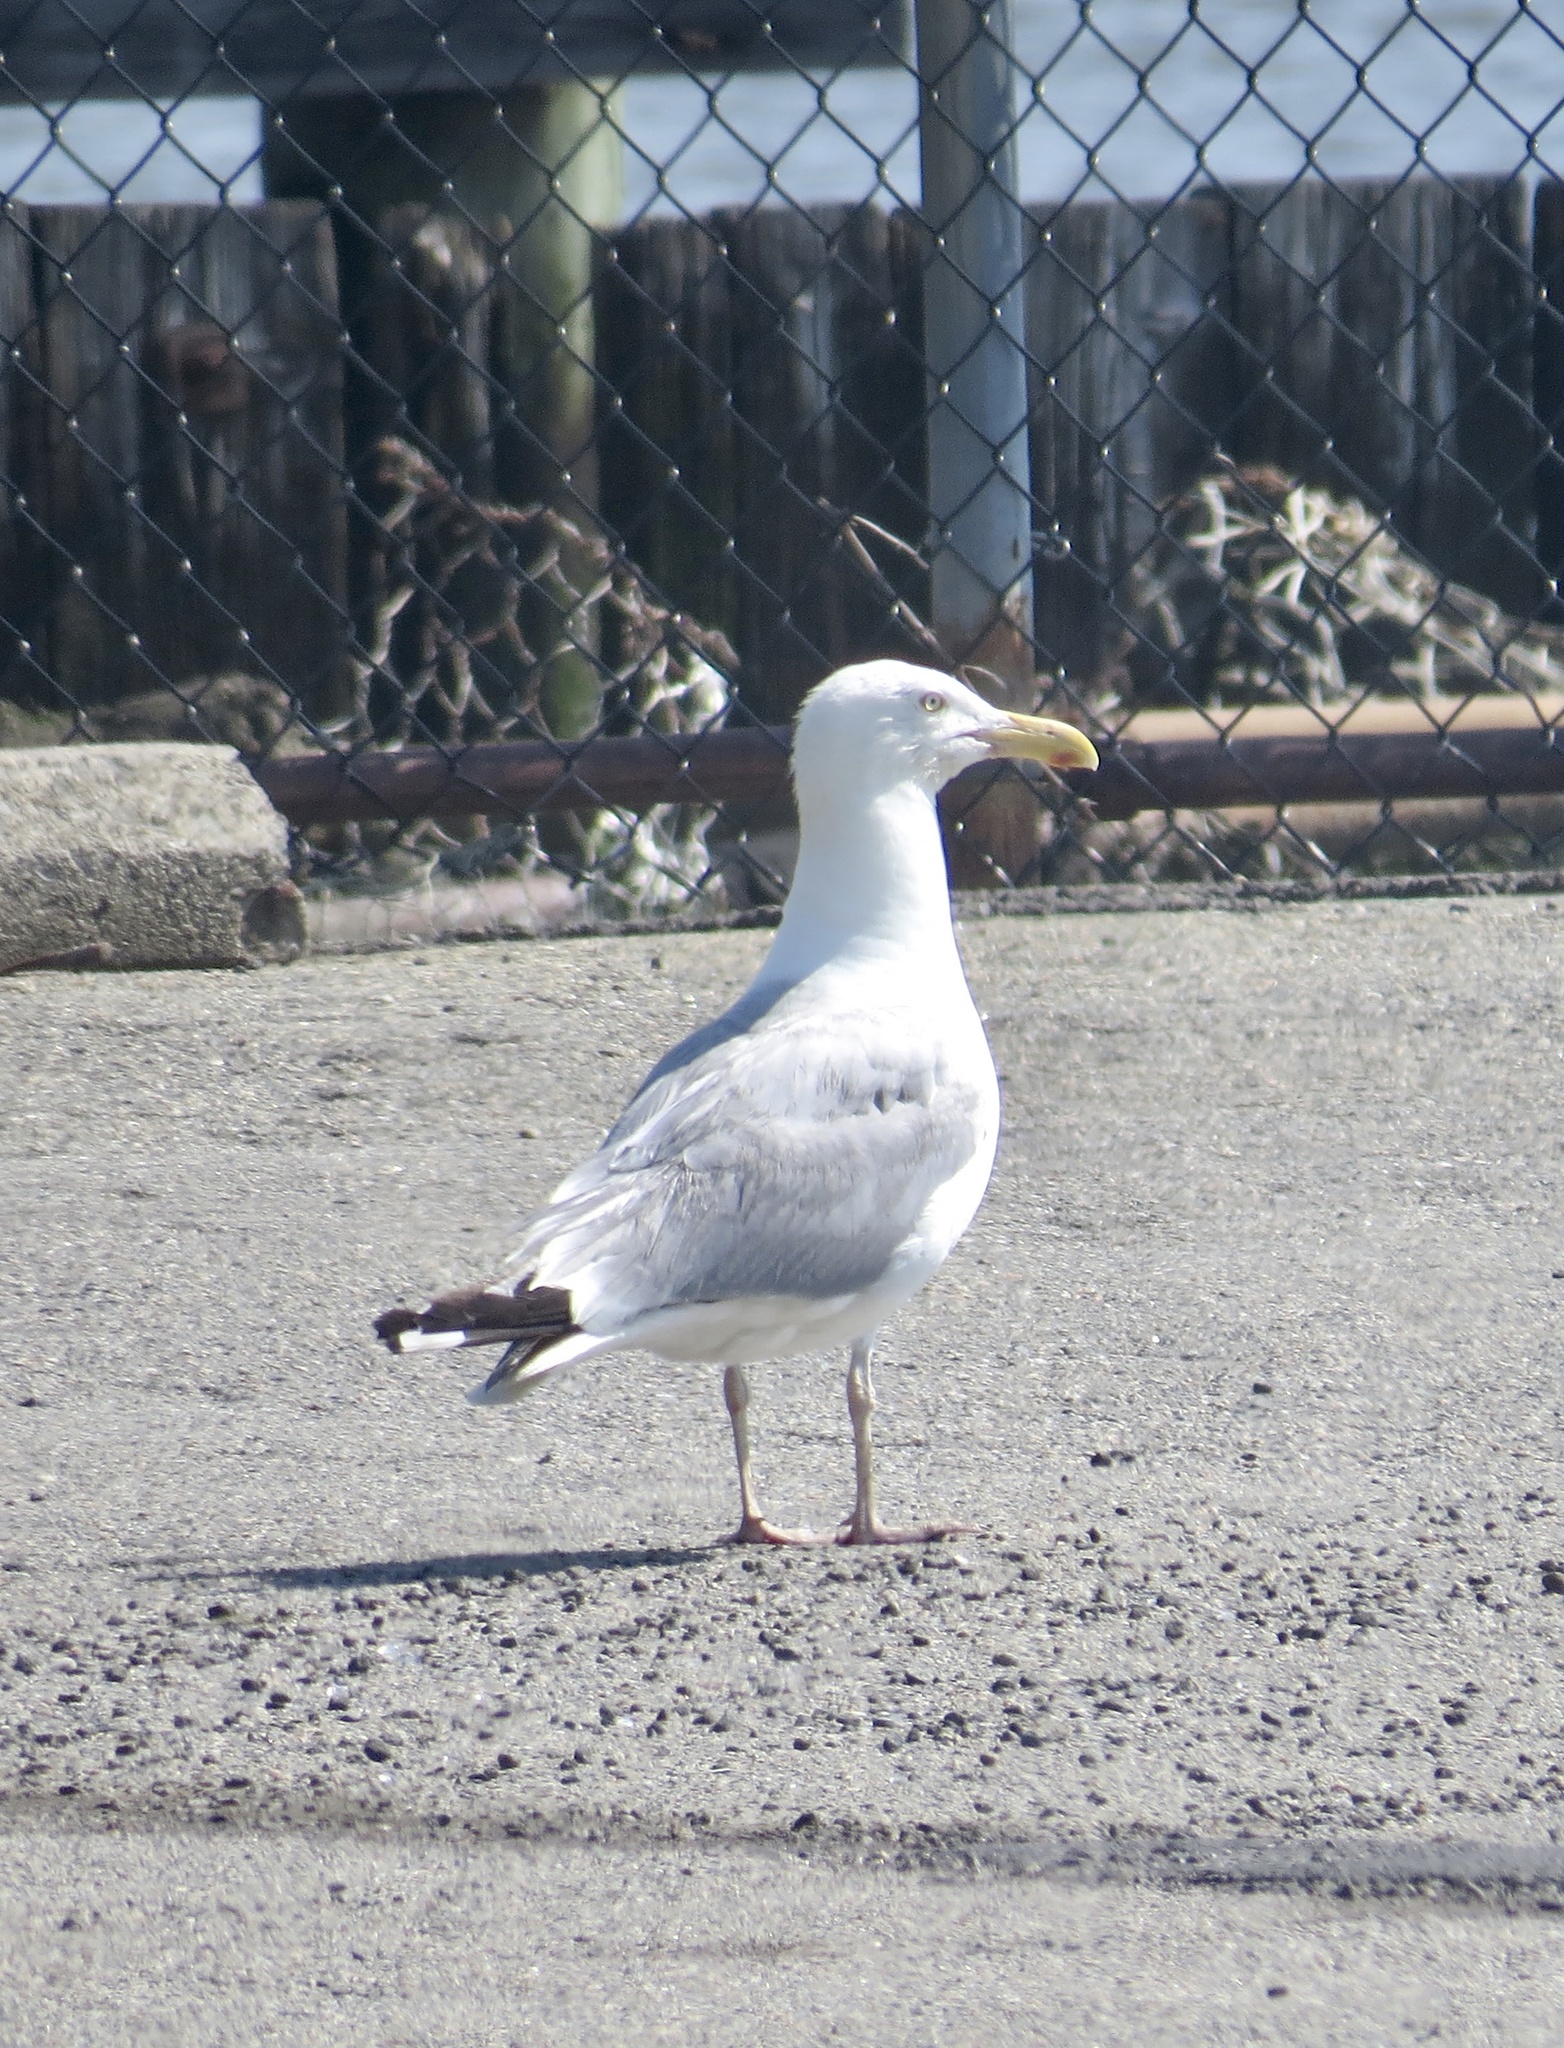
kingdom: Animalia
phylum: Chordata
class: Aves
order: Charadriiformes
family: Laridae
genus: Larus
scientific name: Larus argentatus
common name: Herring gull
